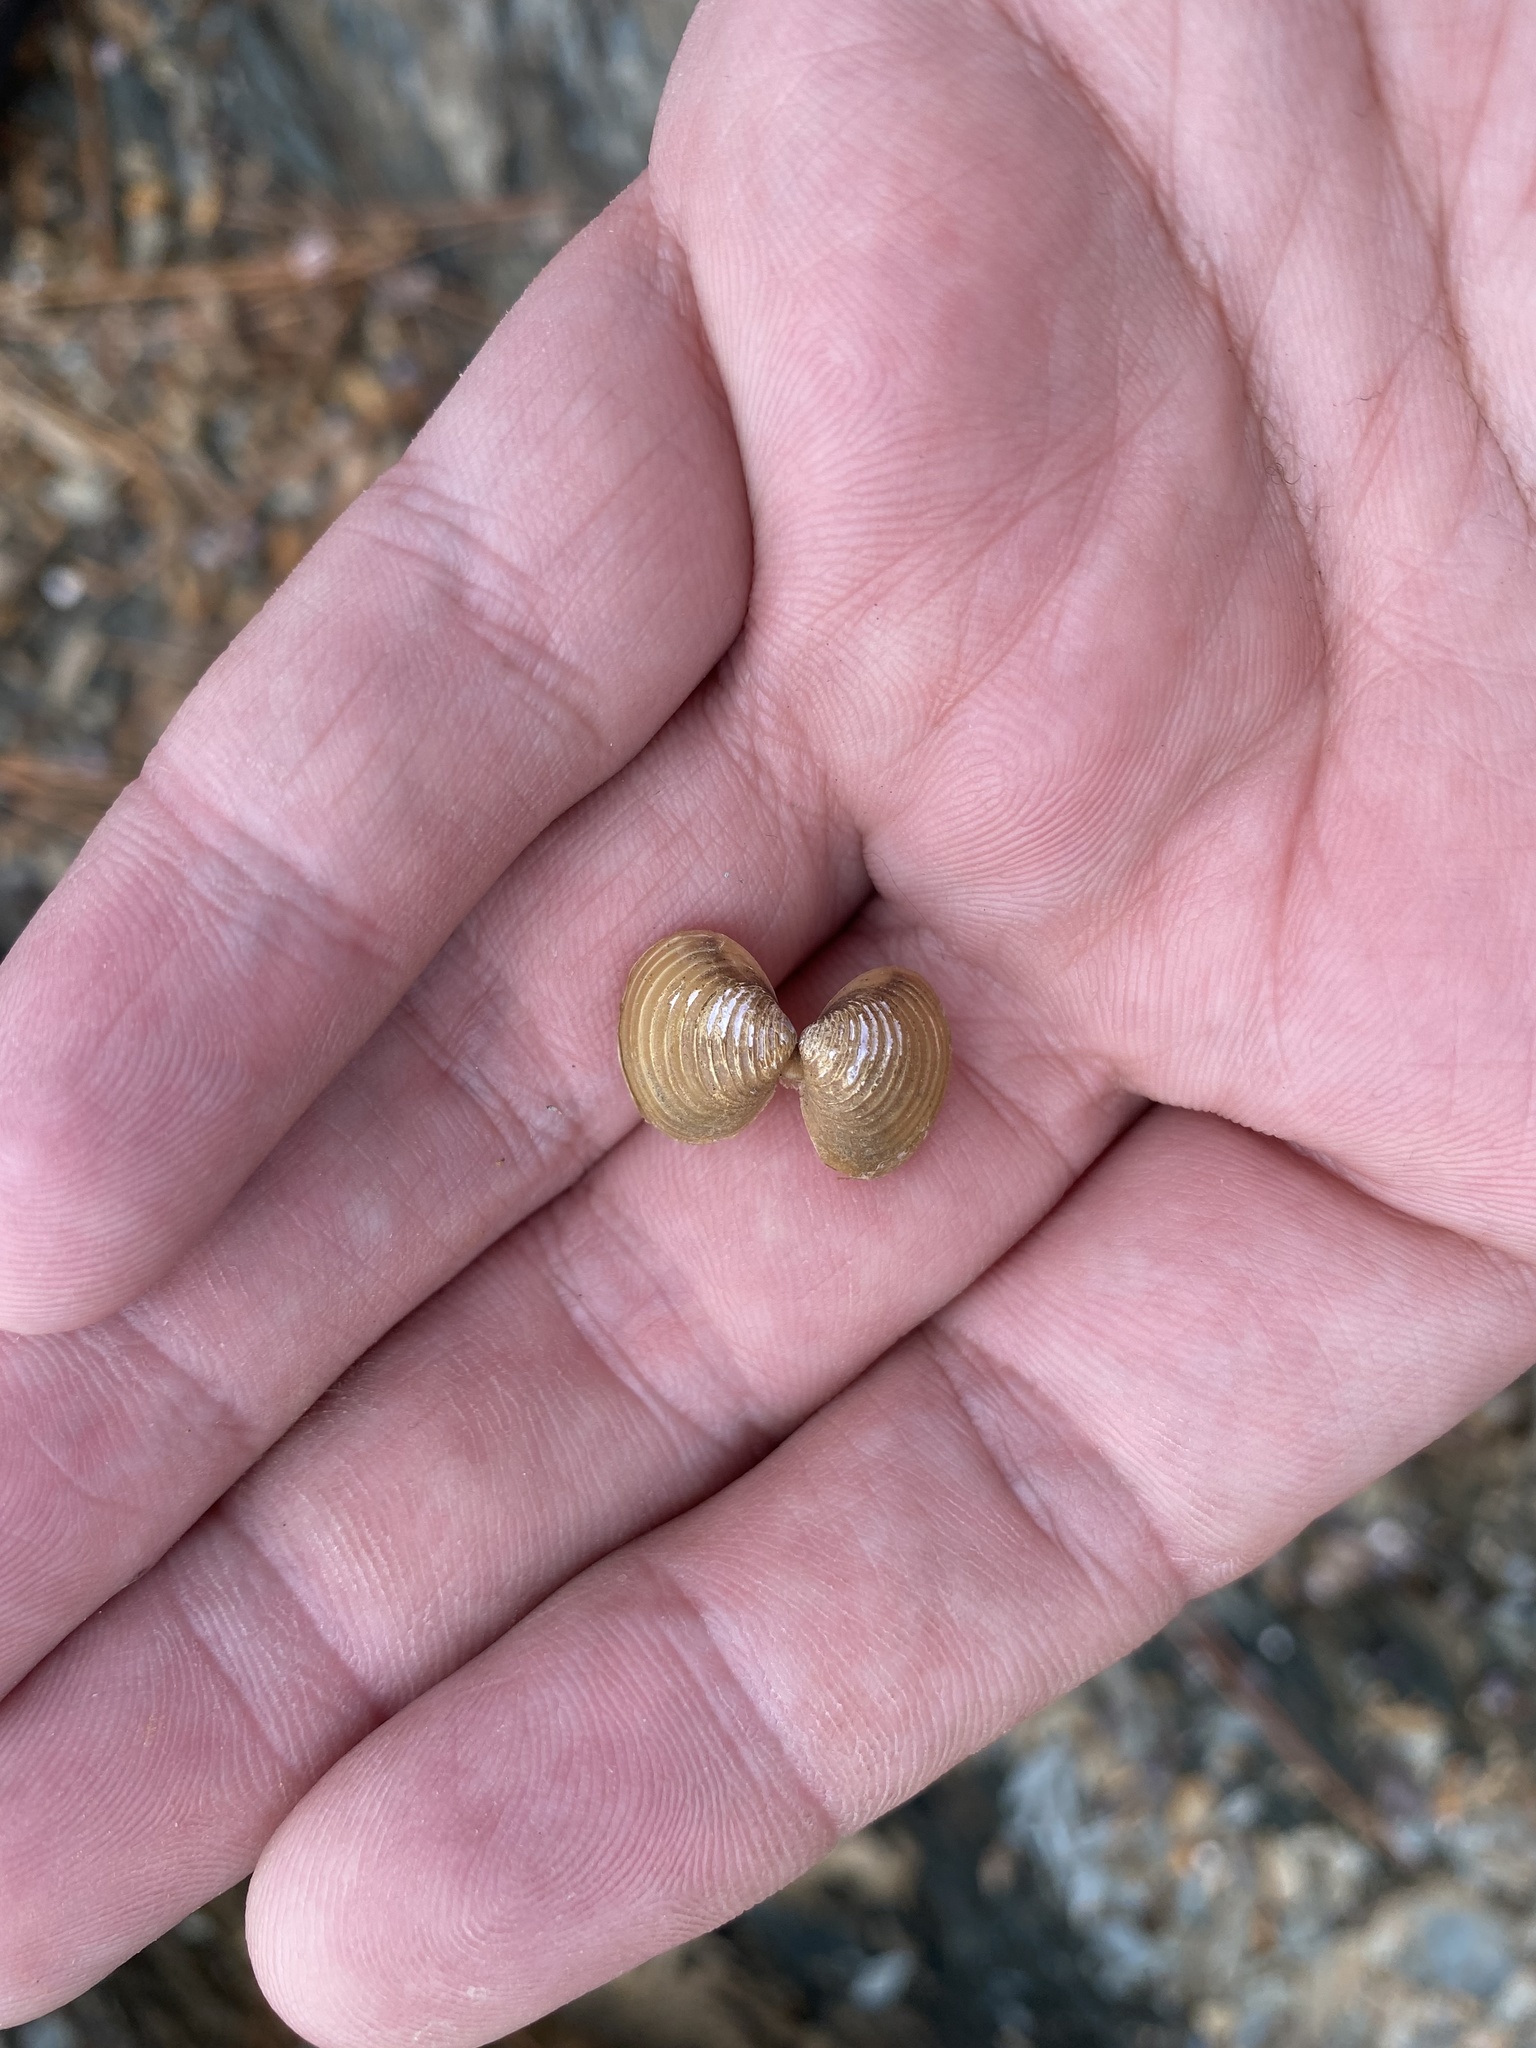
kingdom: Animalia
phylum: Mollusca
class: Bivalvia
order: Venerida
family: Cyrenidae
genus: Corbicula
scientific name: Corbicula fluminea
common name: Asian clam
